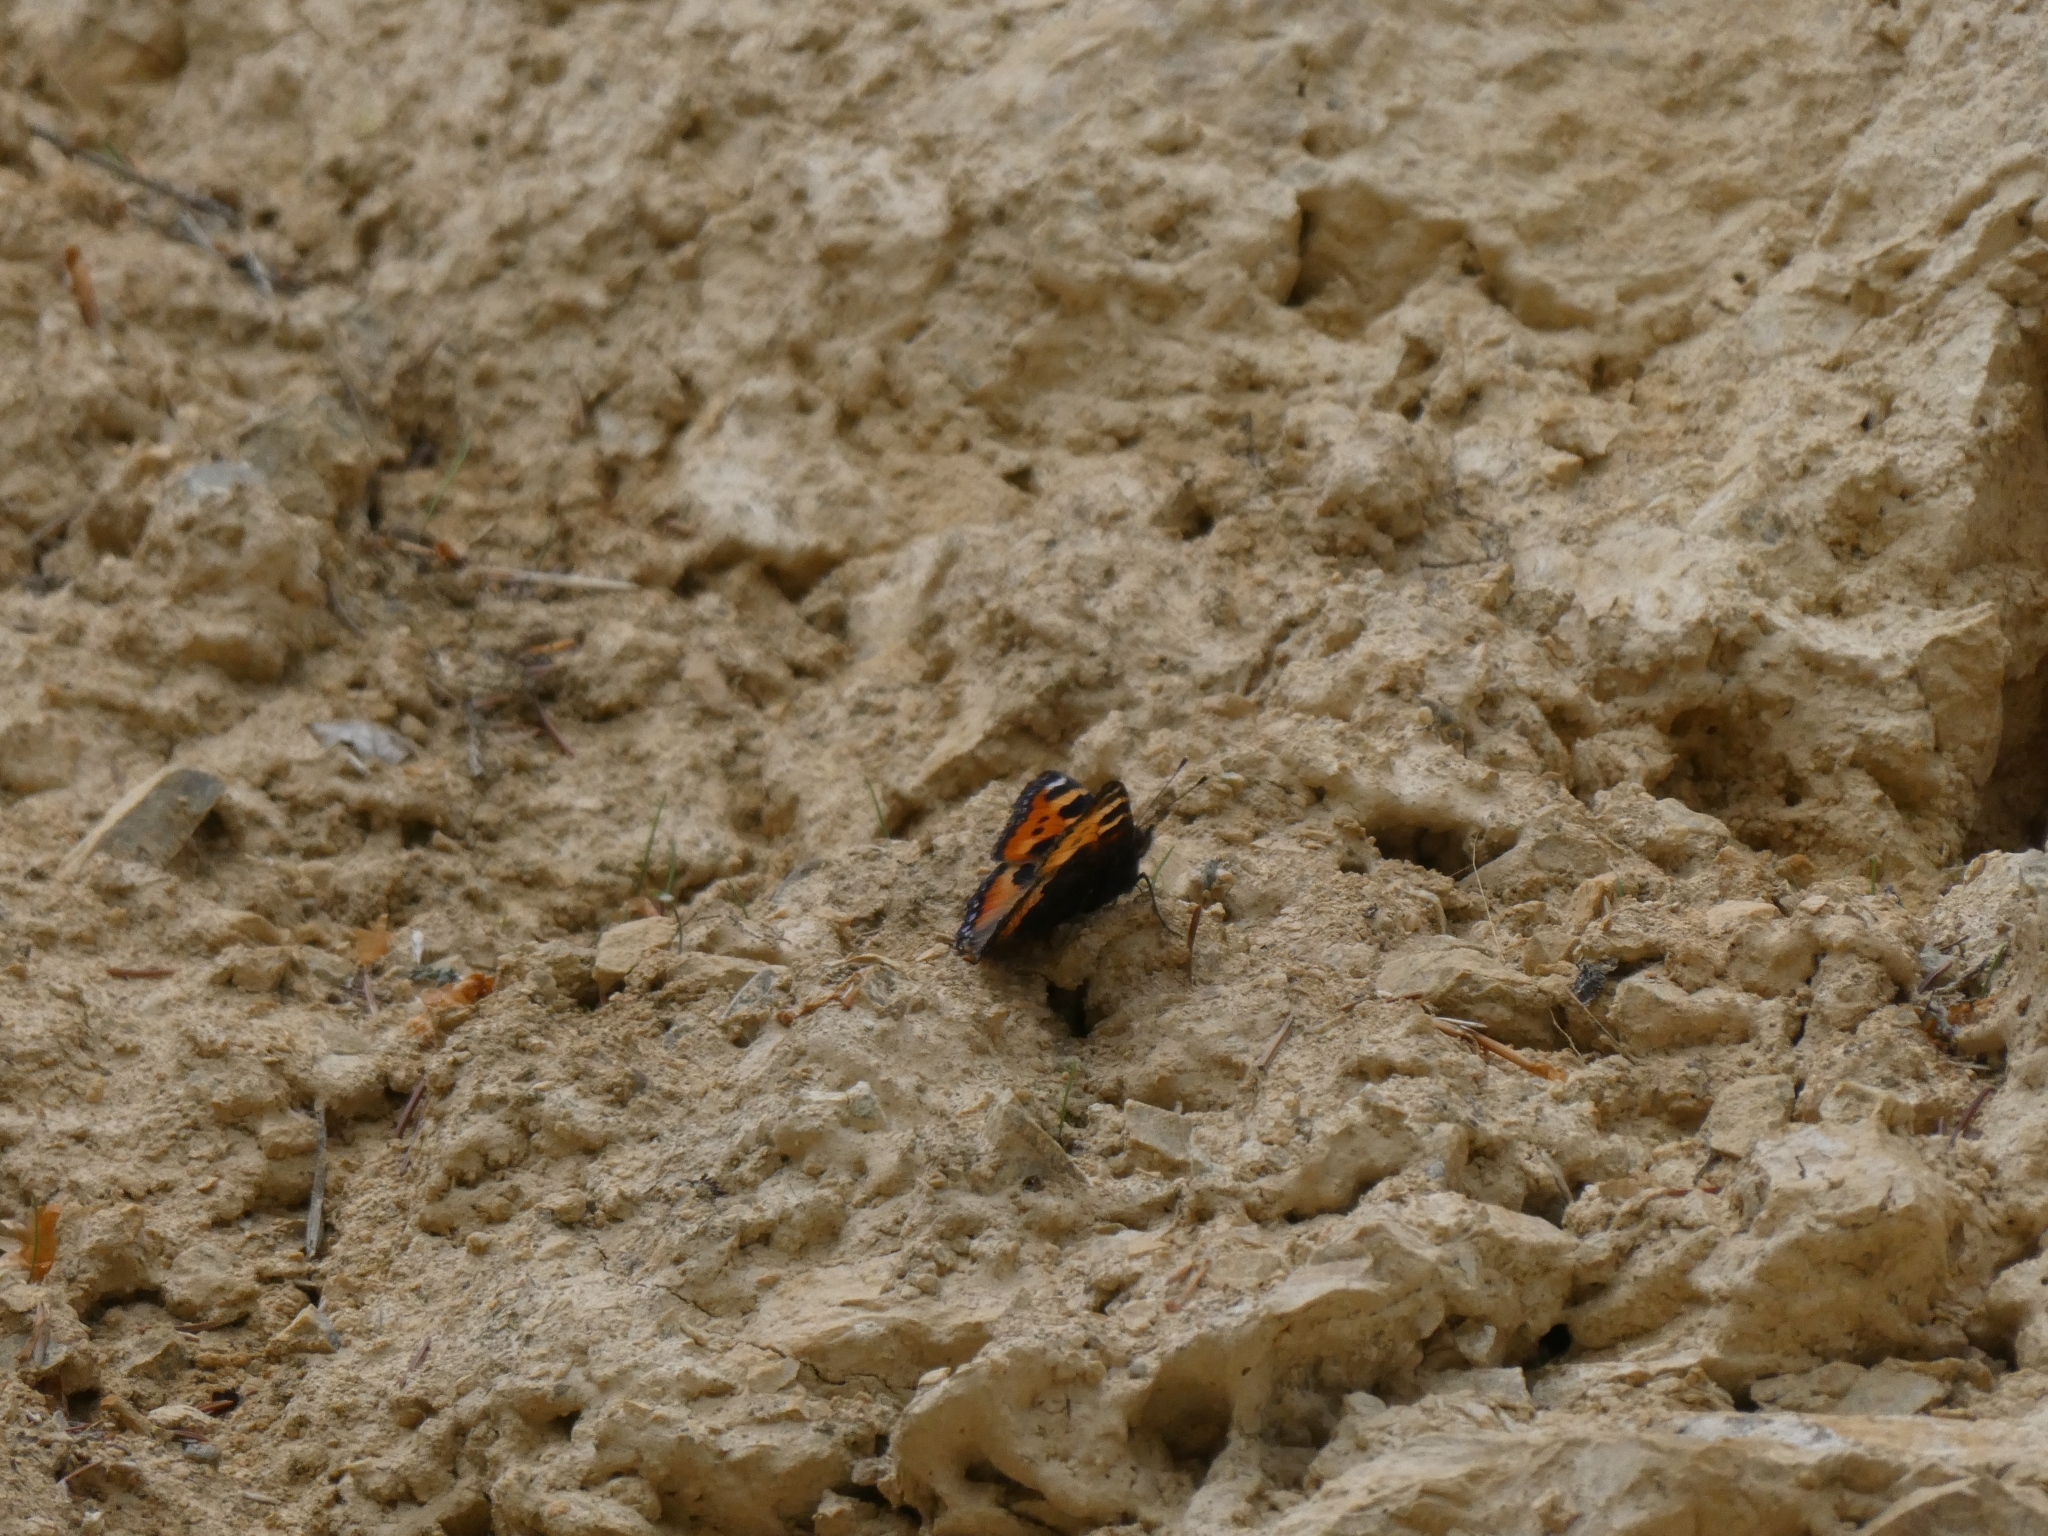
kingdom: Animalia
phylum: Arthropoda
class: Insecta
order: Lepidoptera
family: Nymphalidae
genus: Aglais
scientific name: Aglais urticae
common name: Small tortoiseshell
